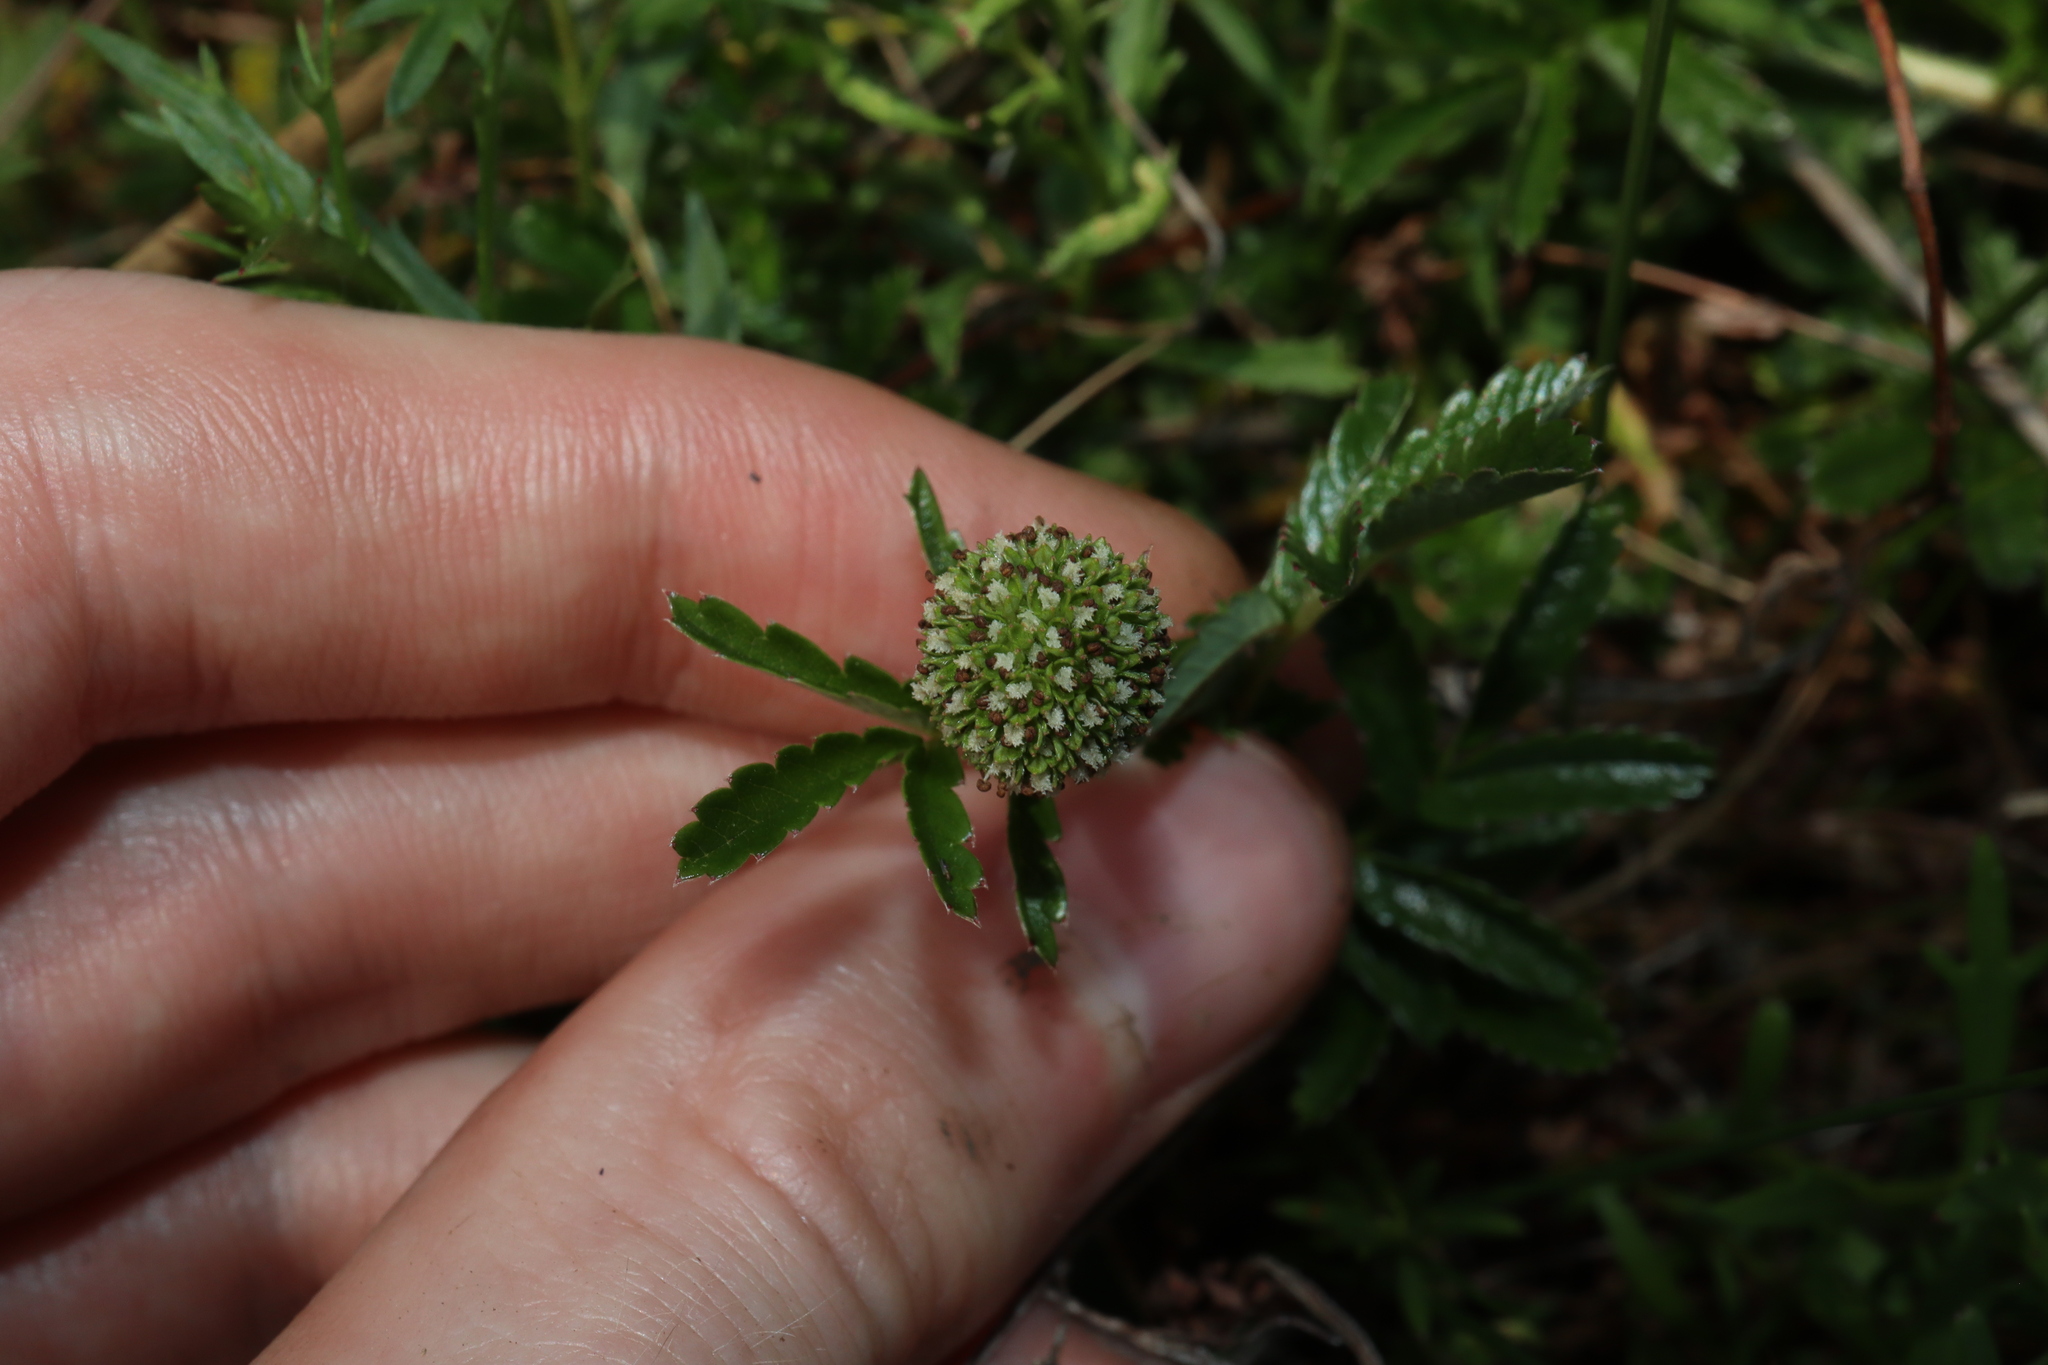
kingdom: Plantae
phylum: Tracheophyta
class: Magnoliopsida
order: Rosales
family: Rosaceae
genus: Acaena
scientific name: Acaena novae-zelandiae
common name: Pirri-pirri-bur
